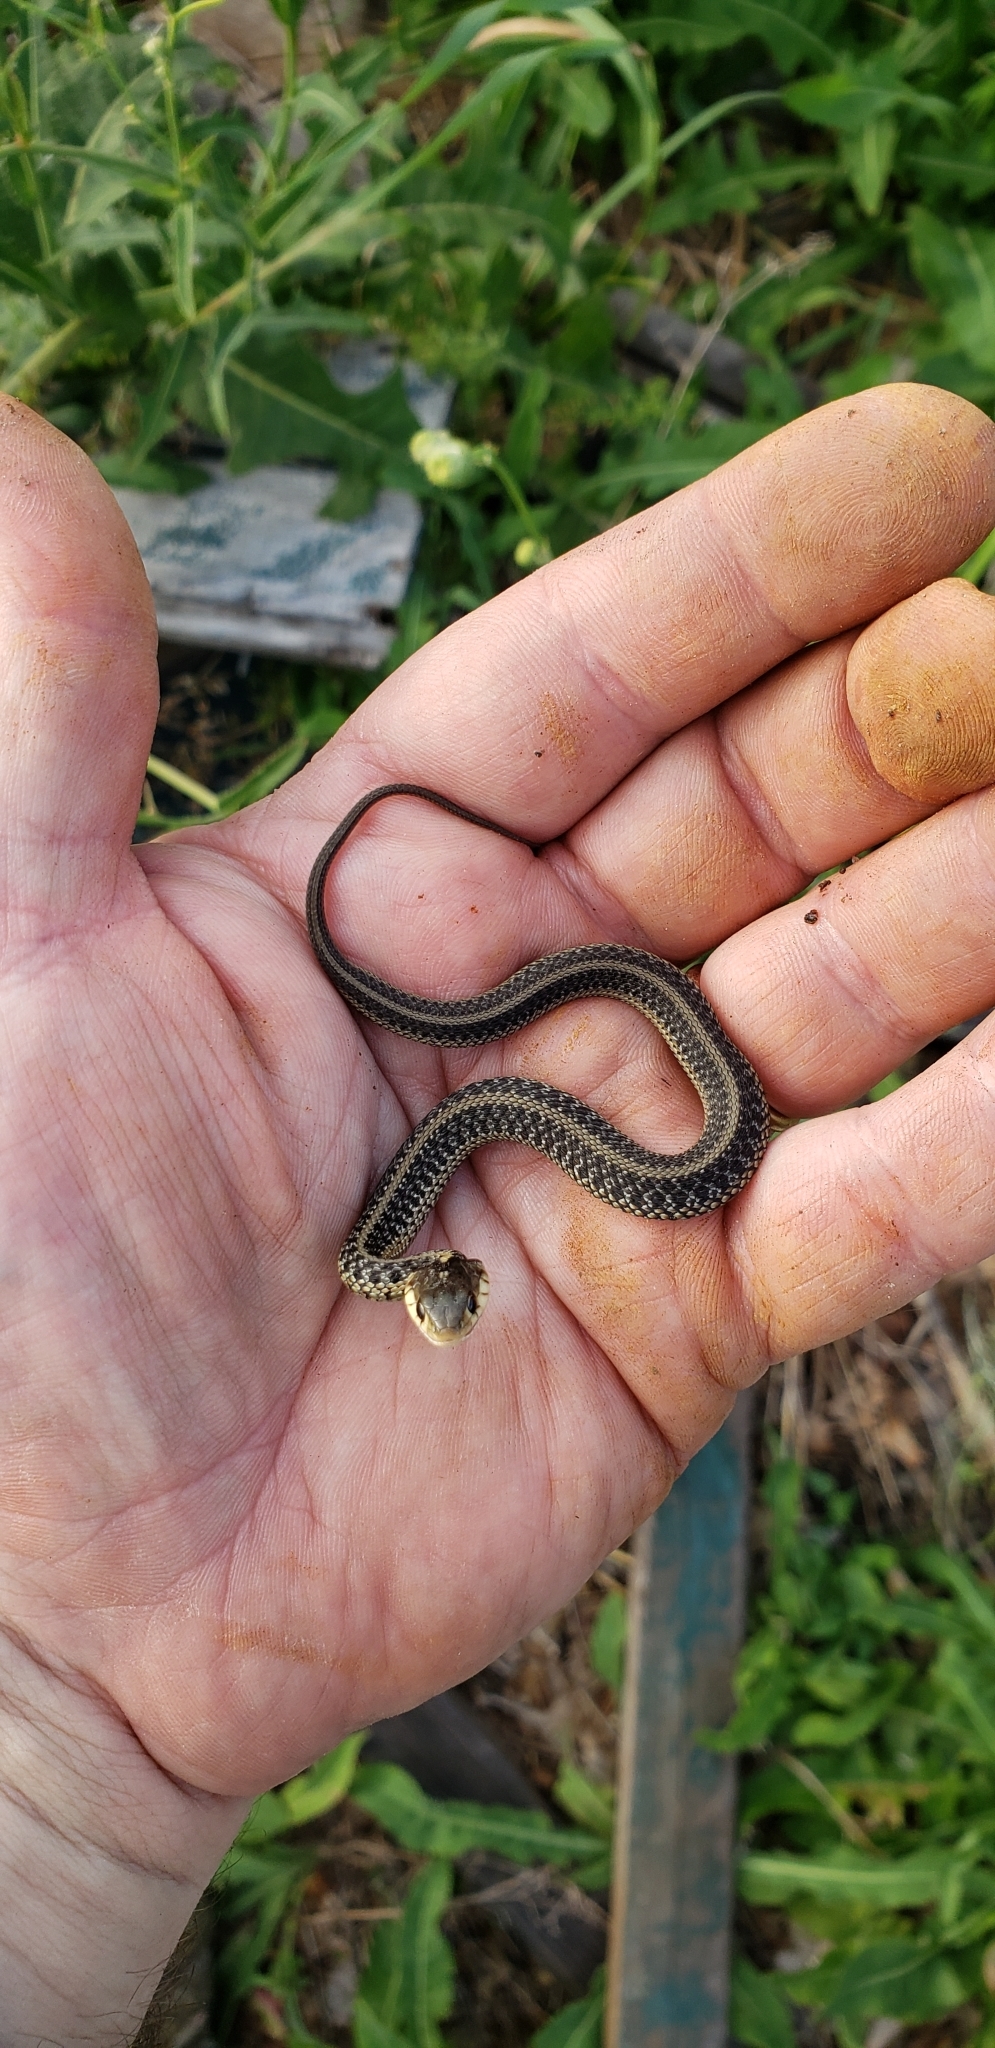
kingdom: Animalia
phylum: Chordata
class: Squamata
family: Colubridae
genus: Thamnophis
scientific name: Thamnophis sirtalis
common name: Common garter snake
